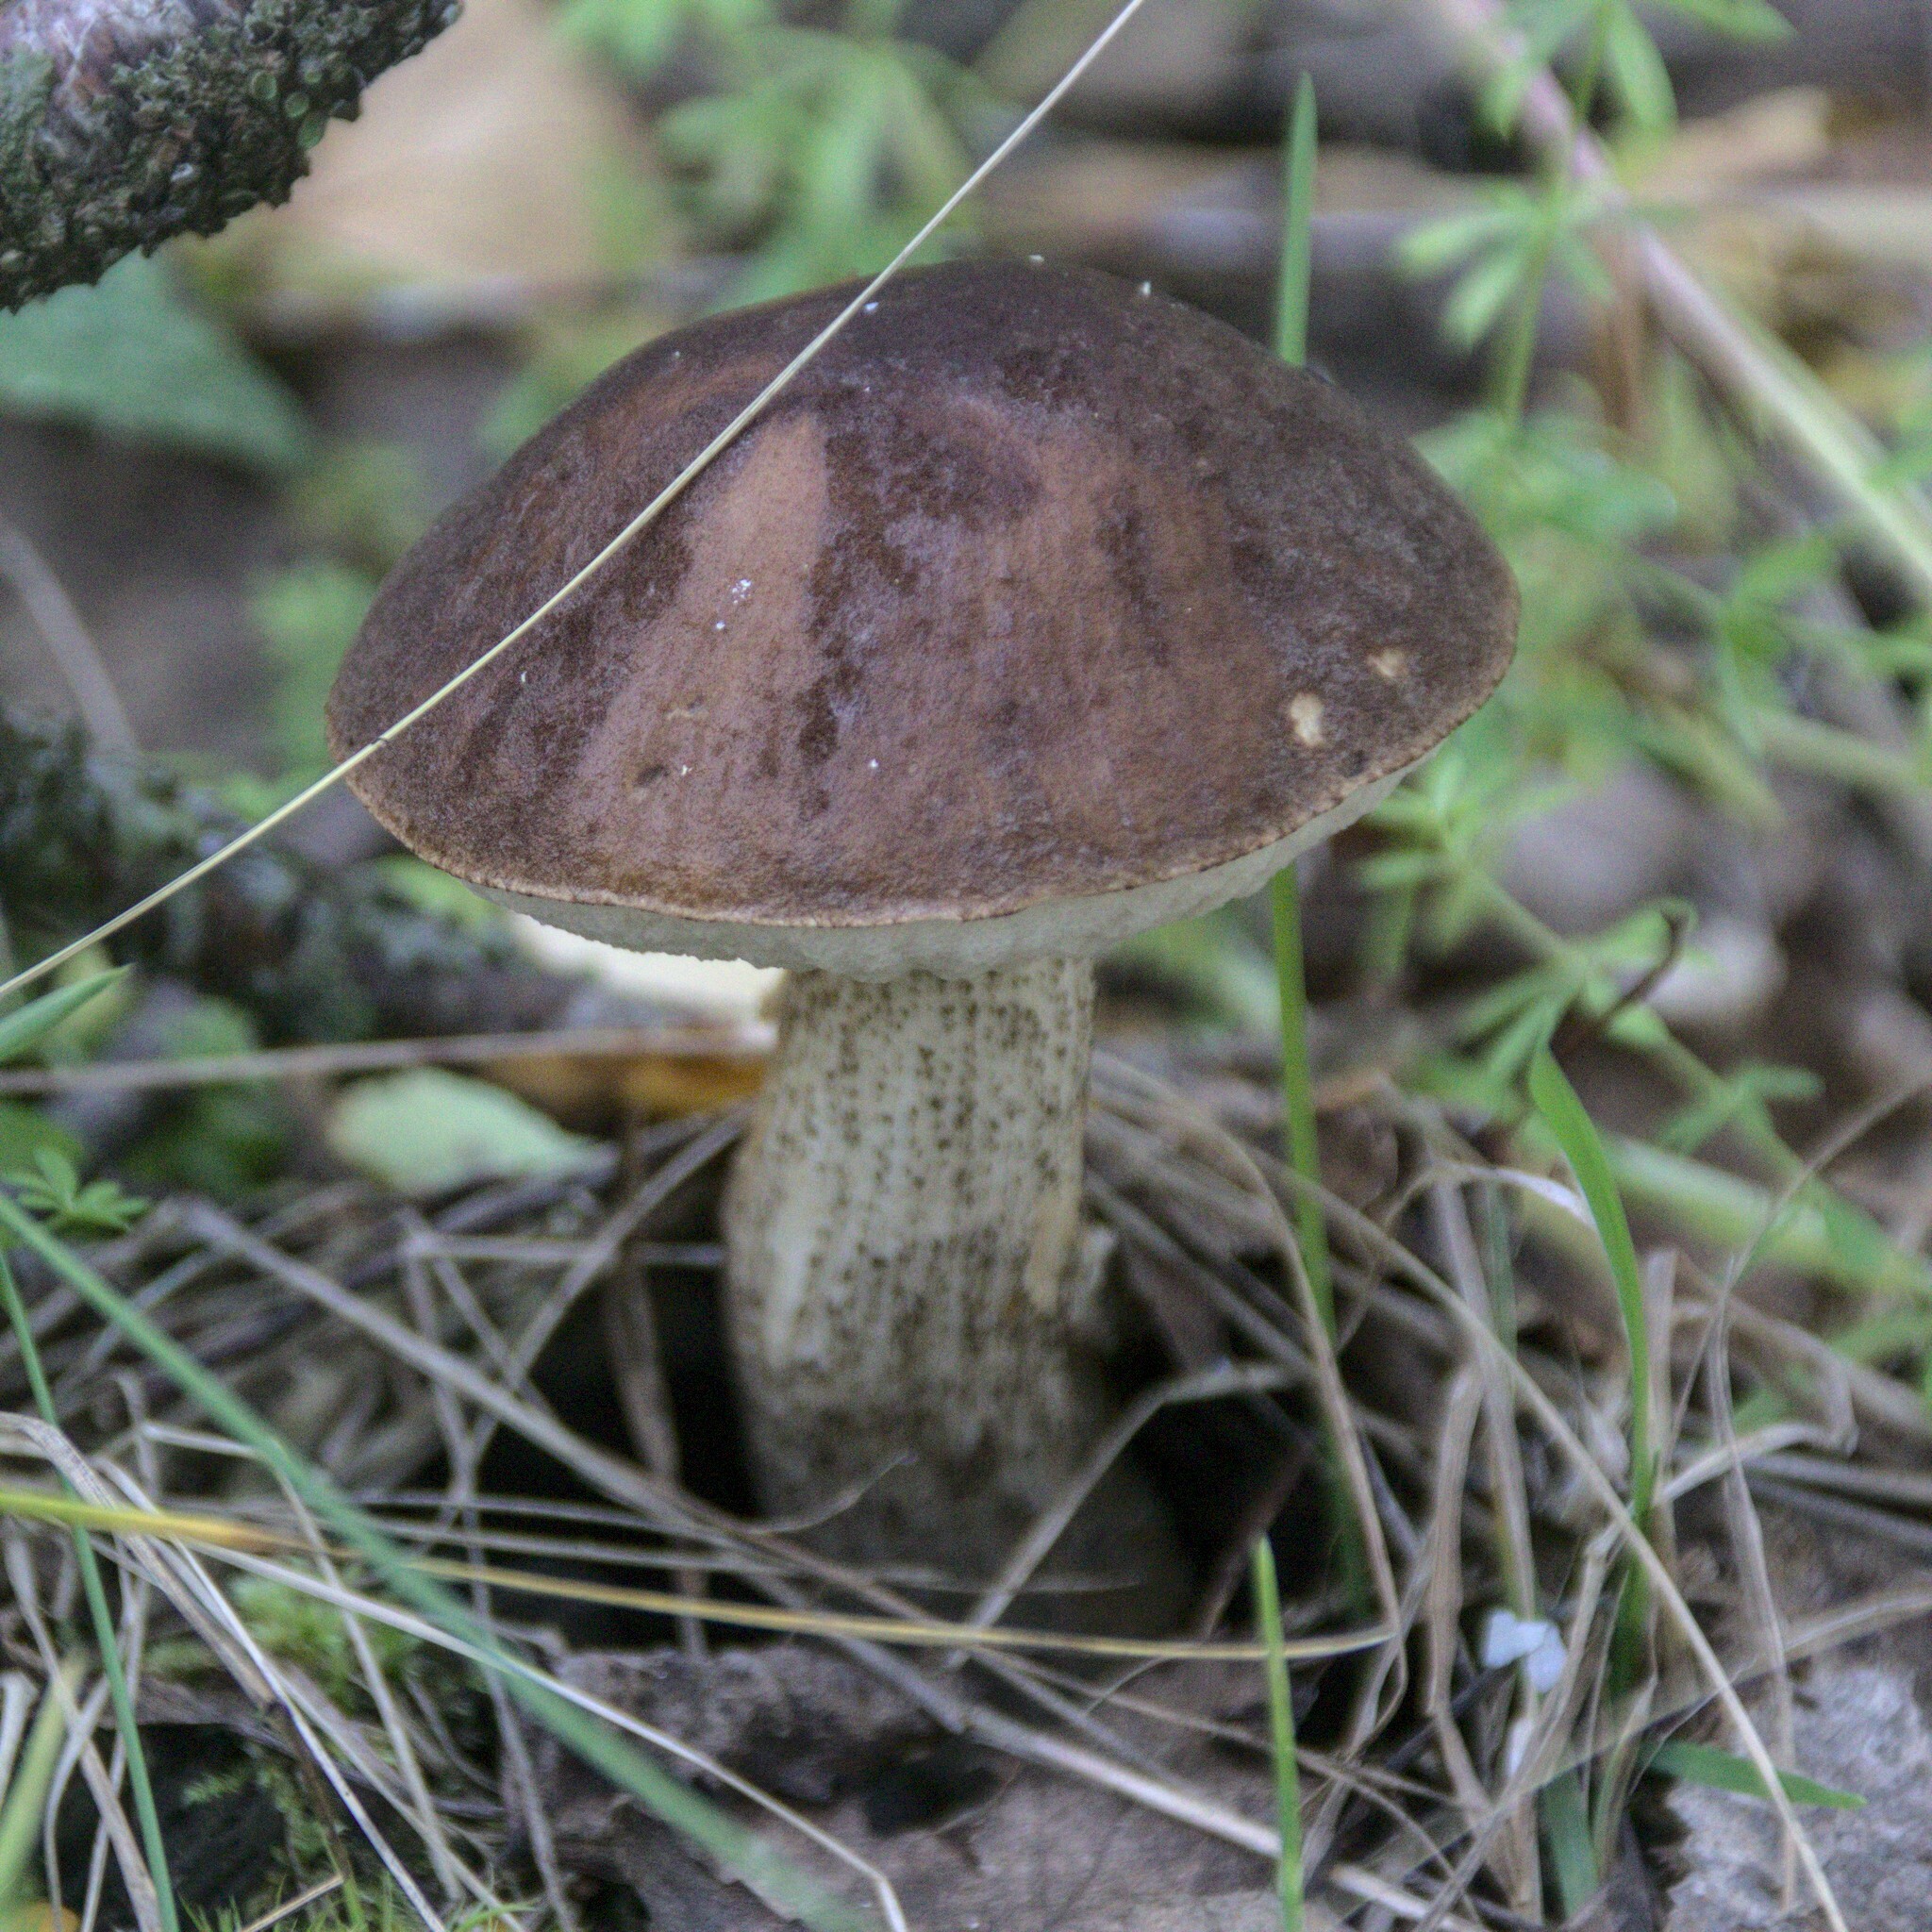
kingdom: Fungi
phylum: Basidiomycota
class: Agaricomycetes
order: Boletales
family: Boletaceae
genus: Leccinum
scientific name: Leccinum scabrum
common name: Blushing bolete
